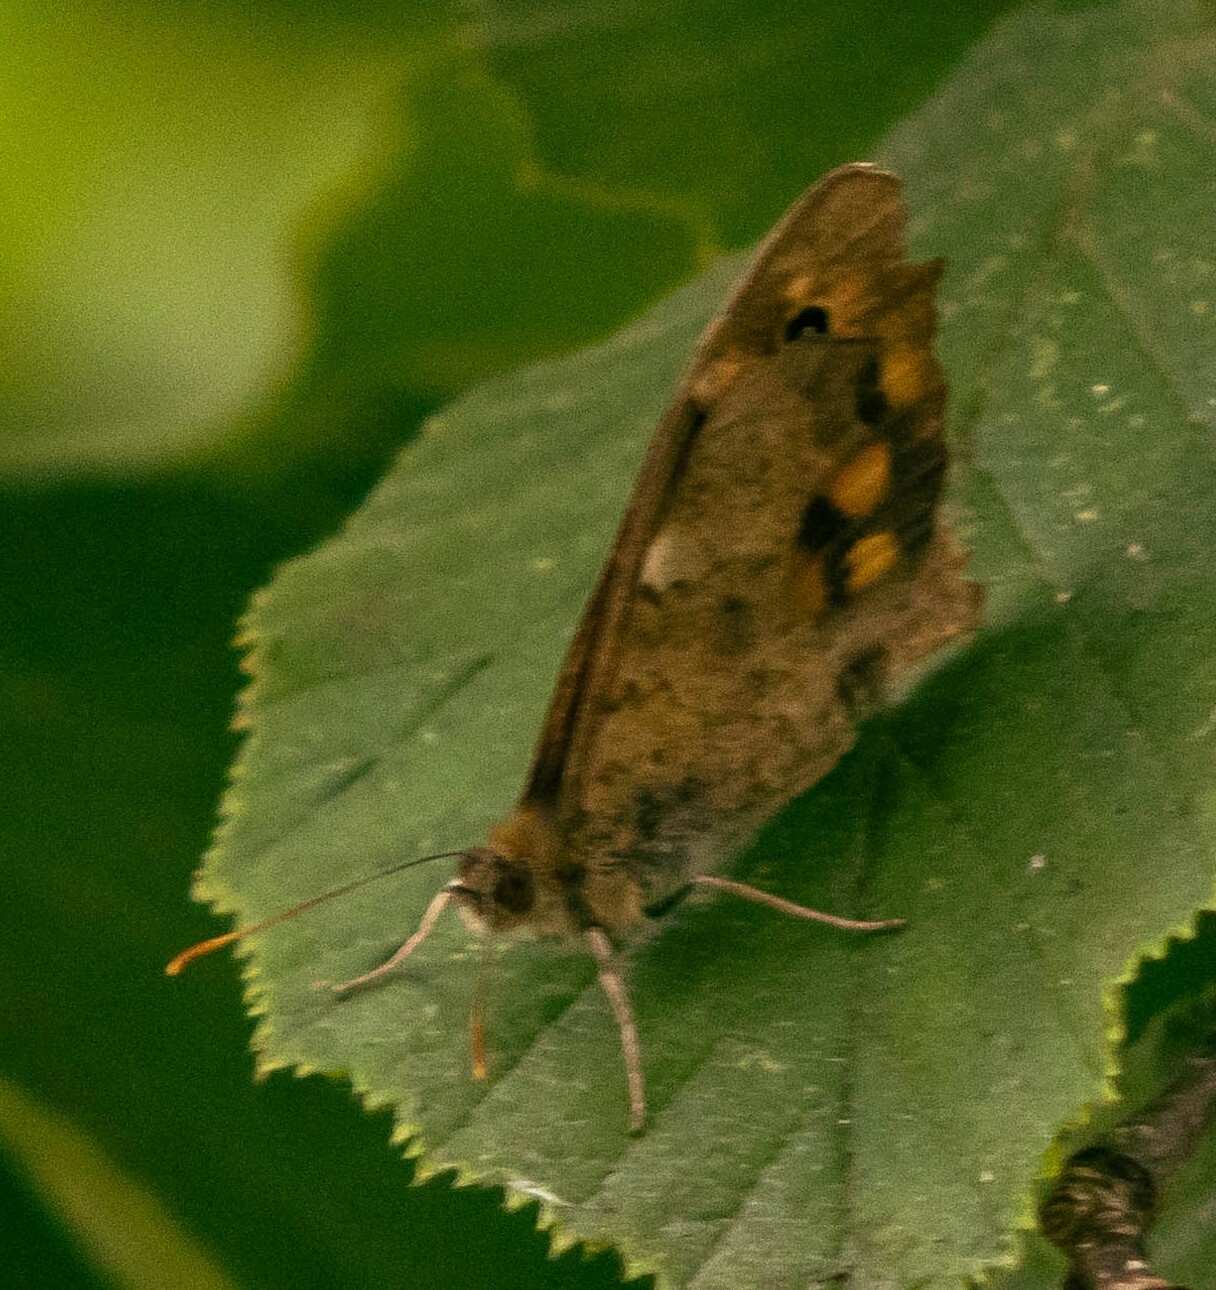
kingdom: Animalia
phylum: Arthropoda
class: Insecta
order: Lepidoptera
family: Nymphalidae
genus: Pararge
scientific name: Pararge aegeria
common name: Speckled wood
